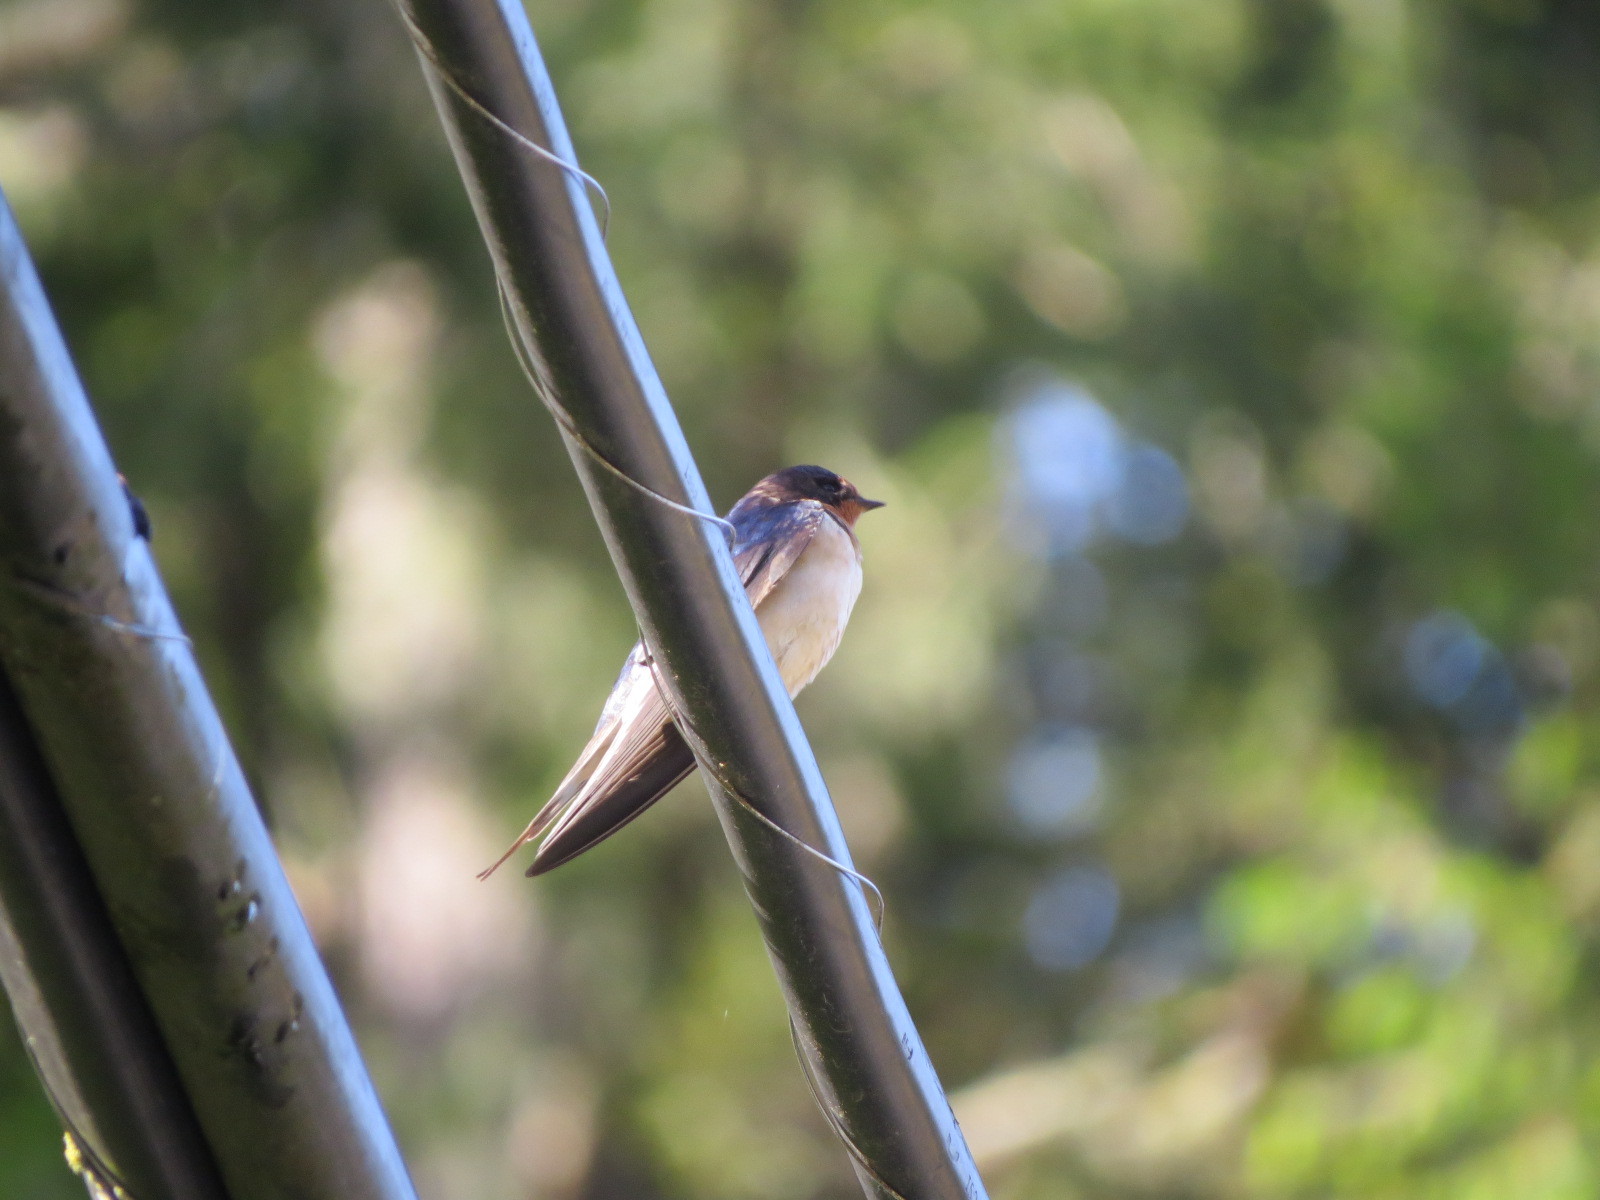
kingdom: Animalia
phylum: Chordata
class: Aves
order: Passeriformes
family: Hirundinidae
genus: Hirundo
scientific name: Hirundo rustica
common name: Barn swallow
